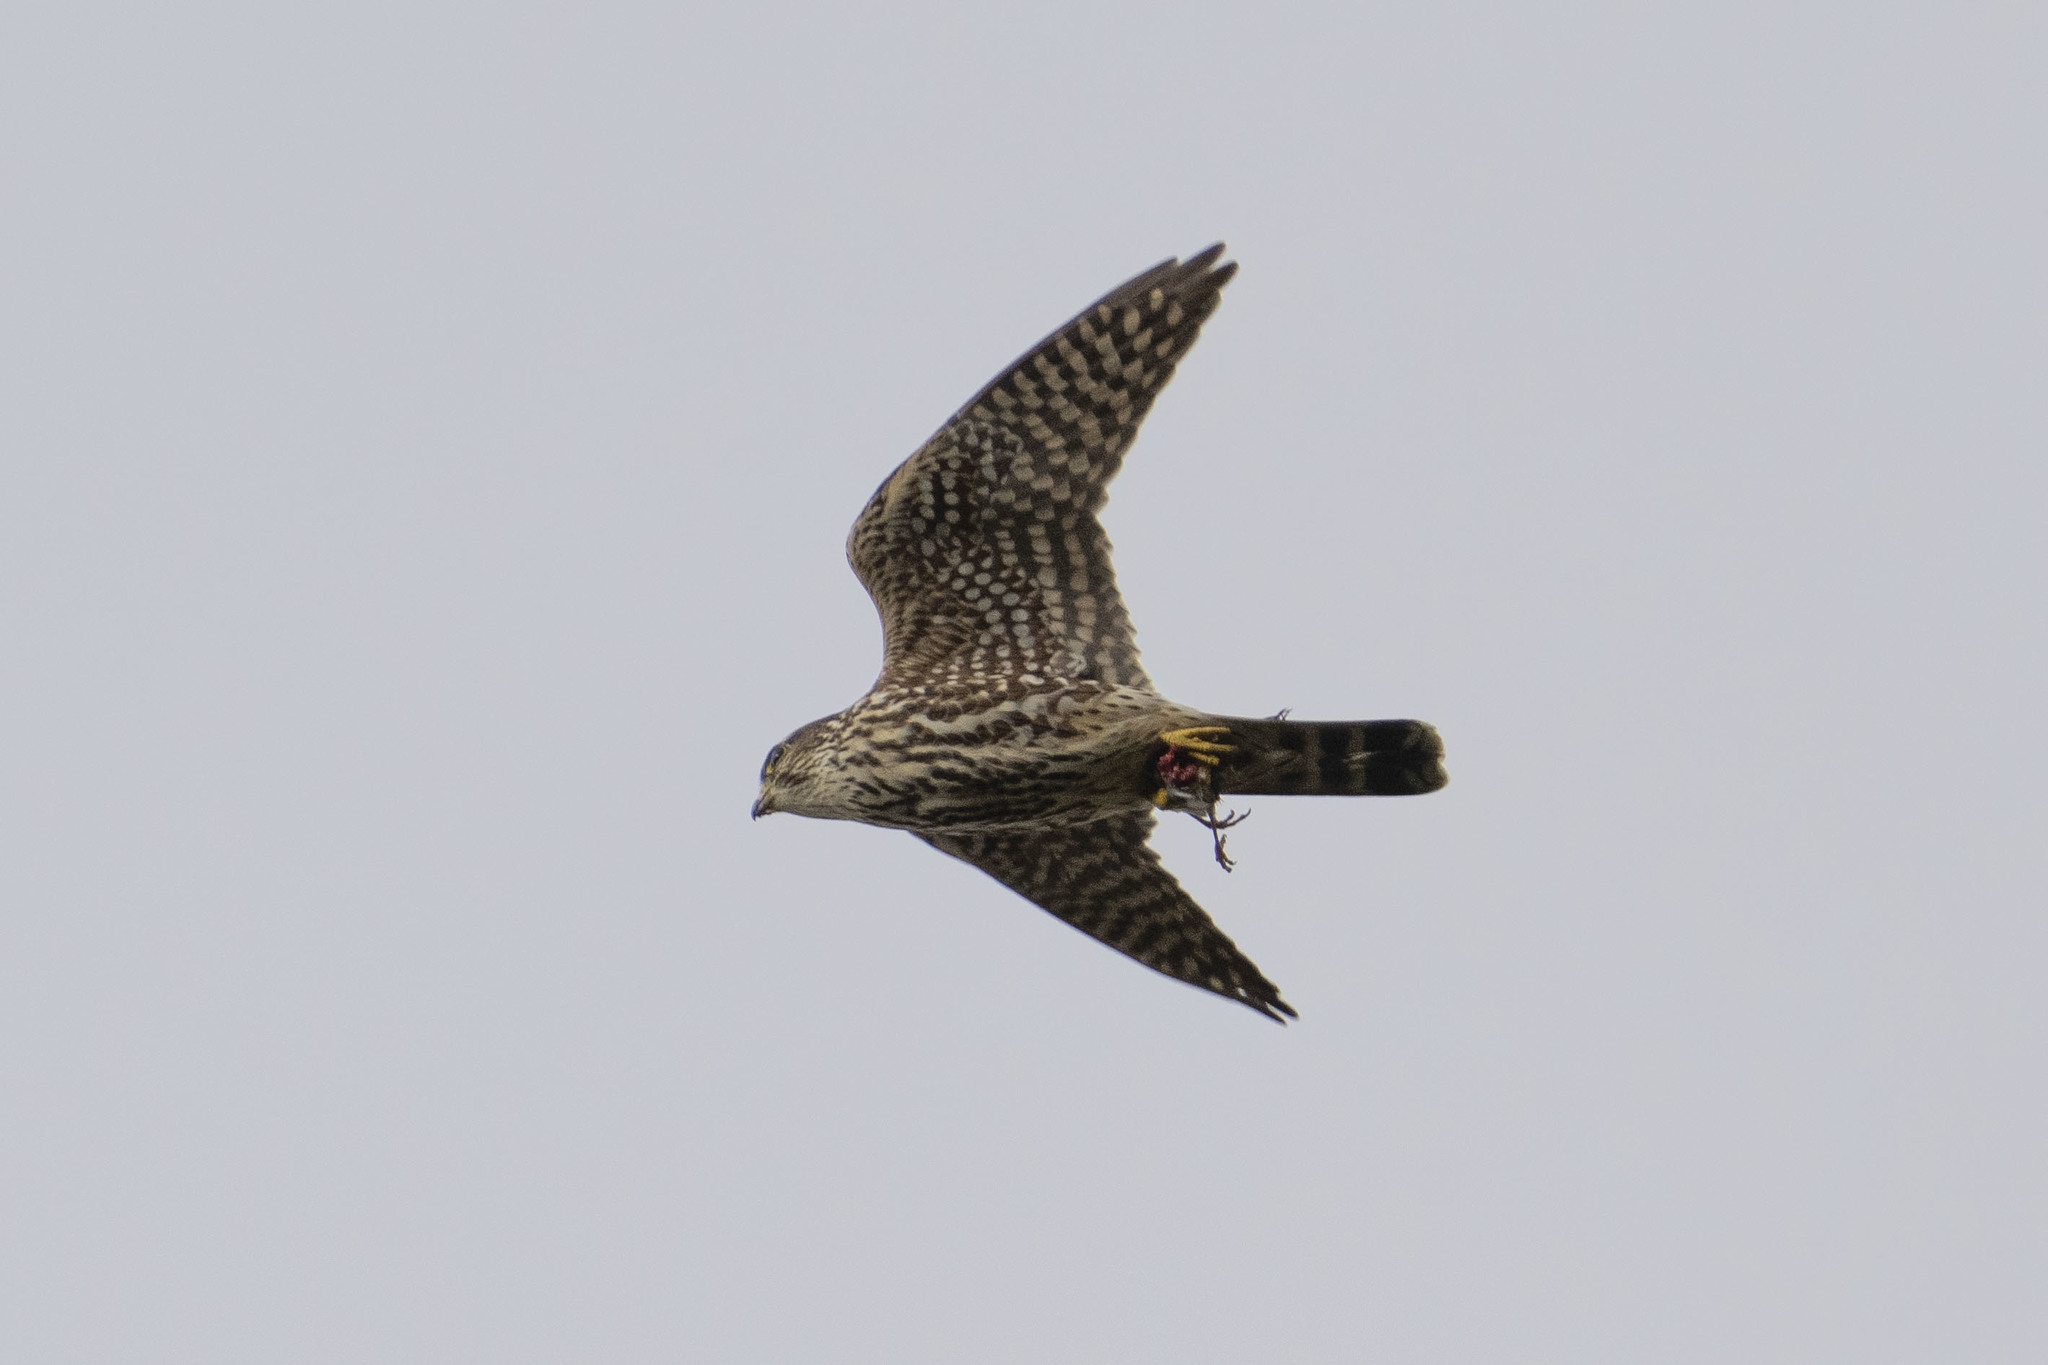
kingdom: Animalia
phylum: Chordata
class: Aves
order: Falconiformes
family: Falconidae
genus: Falco
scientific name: Falco columbarius
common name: Merlin
